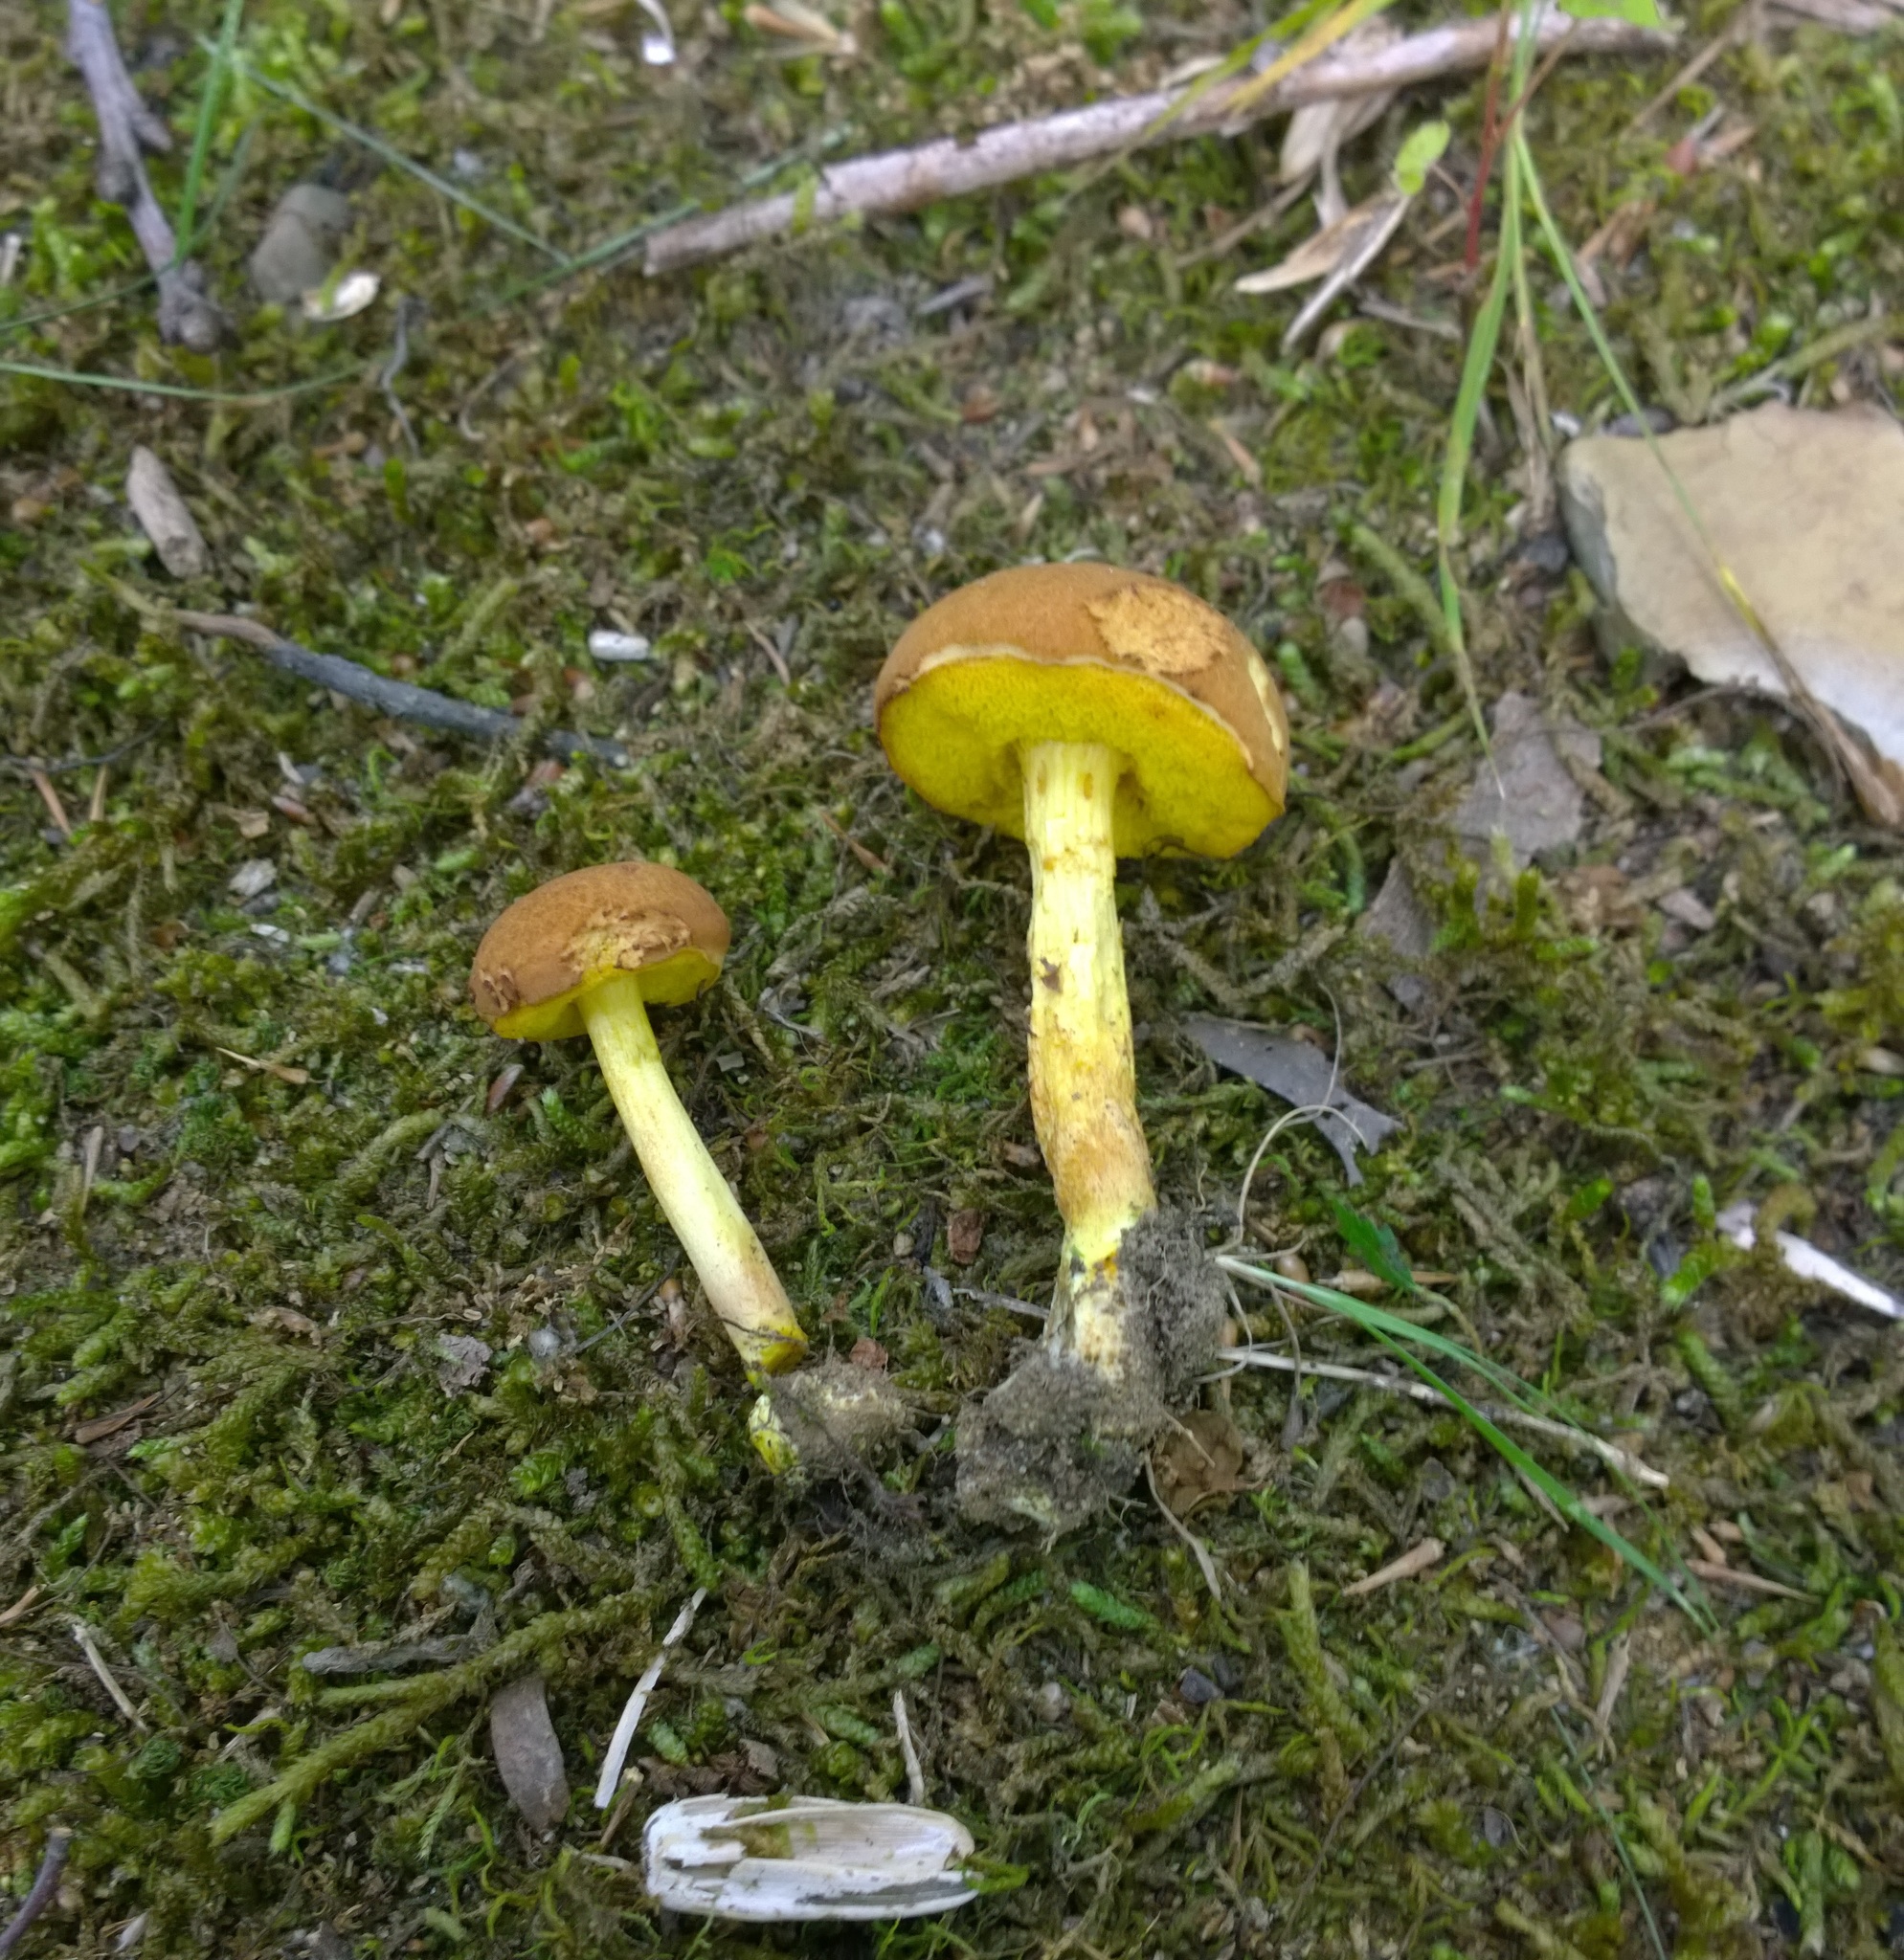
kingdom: Fungi
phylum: Basidiomycota
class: Agaricomycetes
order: Boletales
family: Boletaceae
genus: Xerocomus
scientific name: Xerocomus illudens
